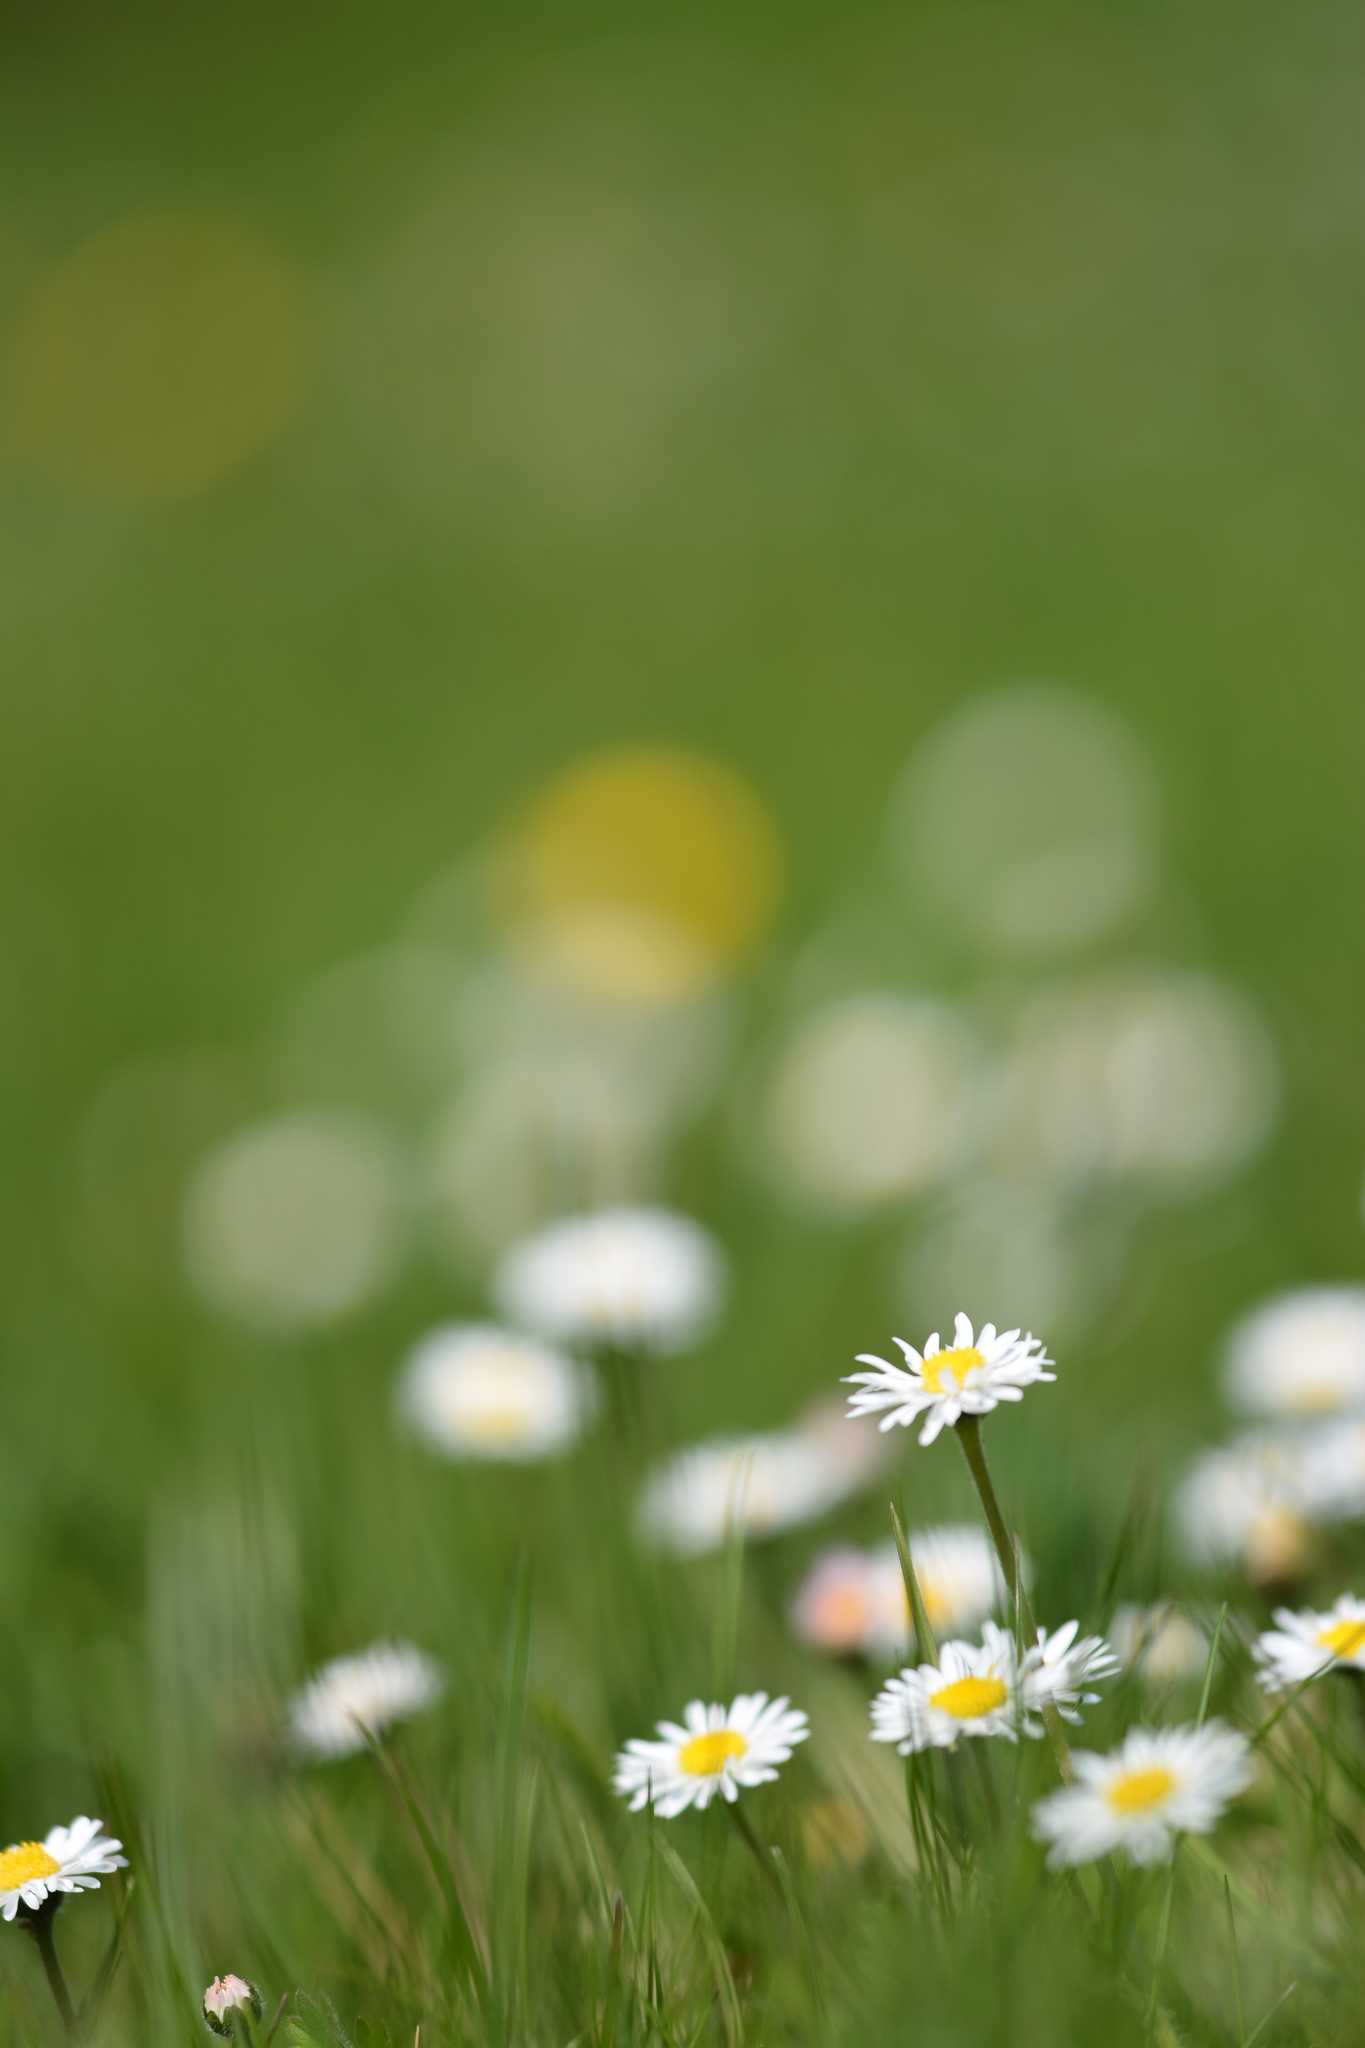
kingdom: Plantae
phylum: Tracheophyta
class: Magnoliopsida
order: Asterales
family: Asteraceae
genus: Bellis
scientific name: Bellis perennis
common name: Lawndaisy
